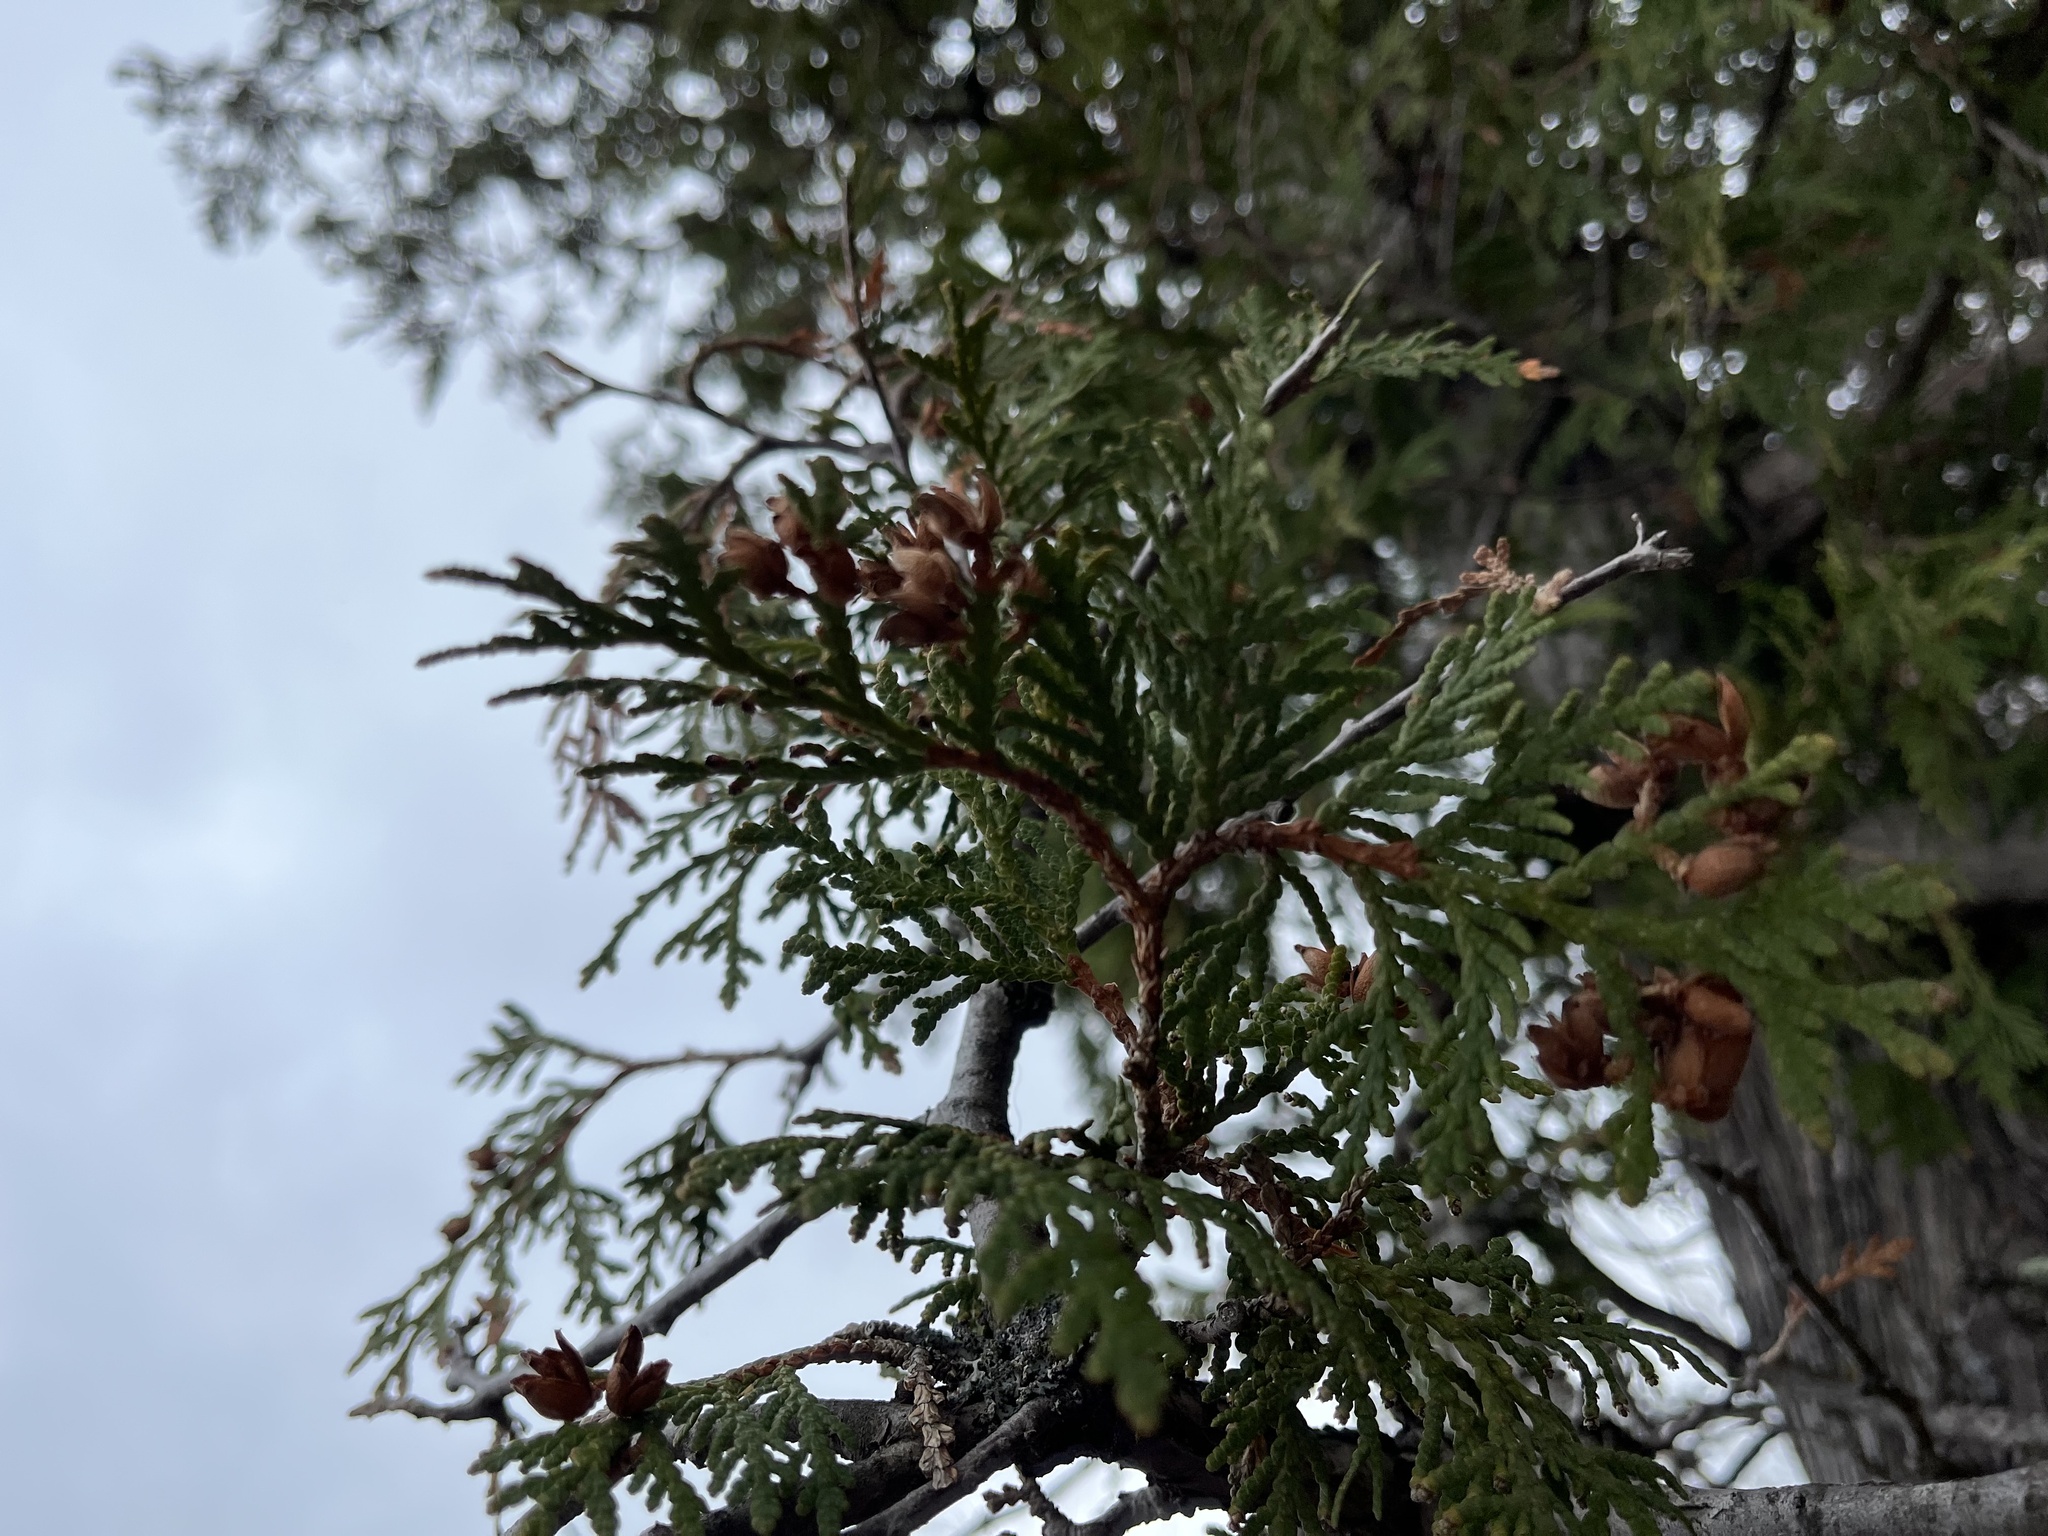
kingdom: Plantae
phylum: Tracheophyta
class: Pinopsida
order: Pinales
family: Cupressaceae
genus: Thuja
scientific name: Thuja occidentalis
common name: Northern white-cedar
